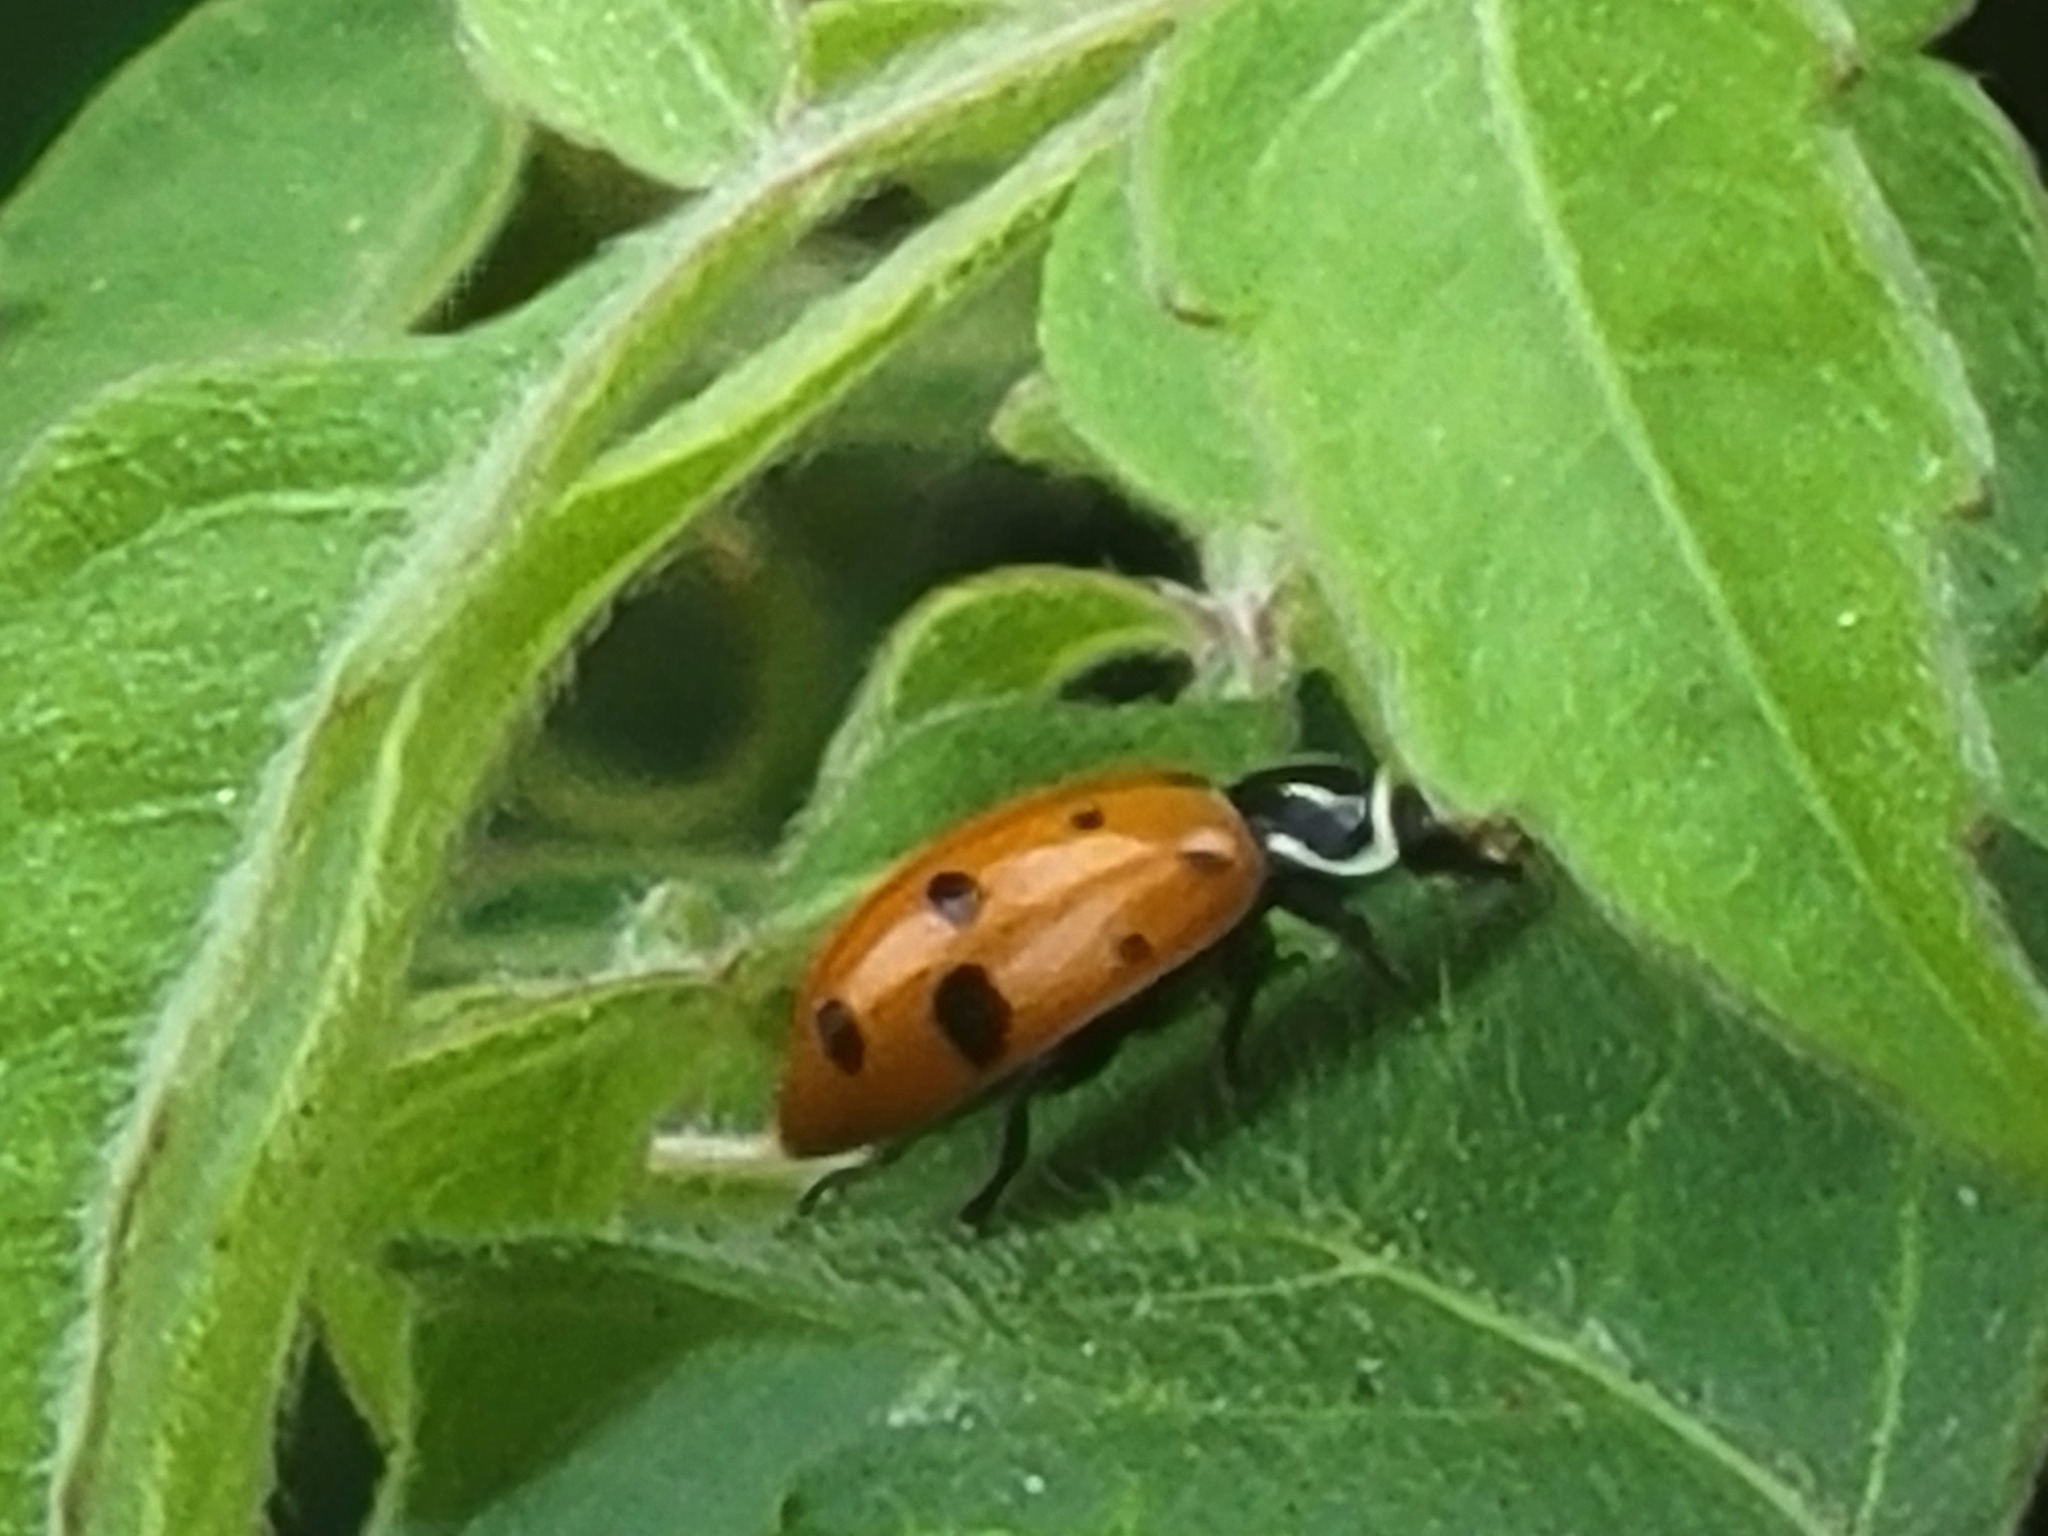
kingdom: Animalia
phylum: Arthropoda
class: Insecta
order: Coleoptera
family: Coccinellidae
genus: Hippodamia
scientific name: Hippodamia convergens
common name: Convergent lady beetle
